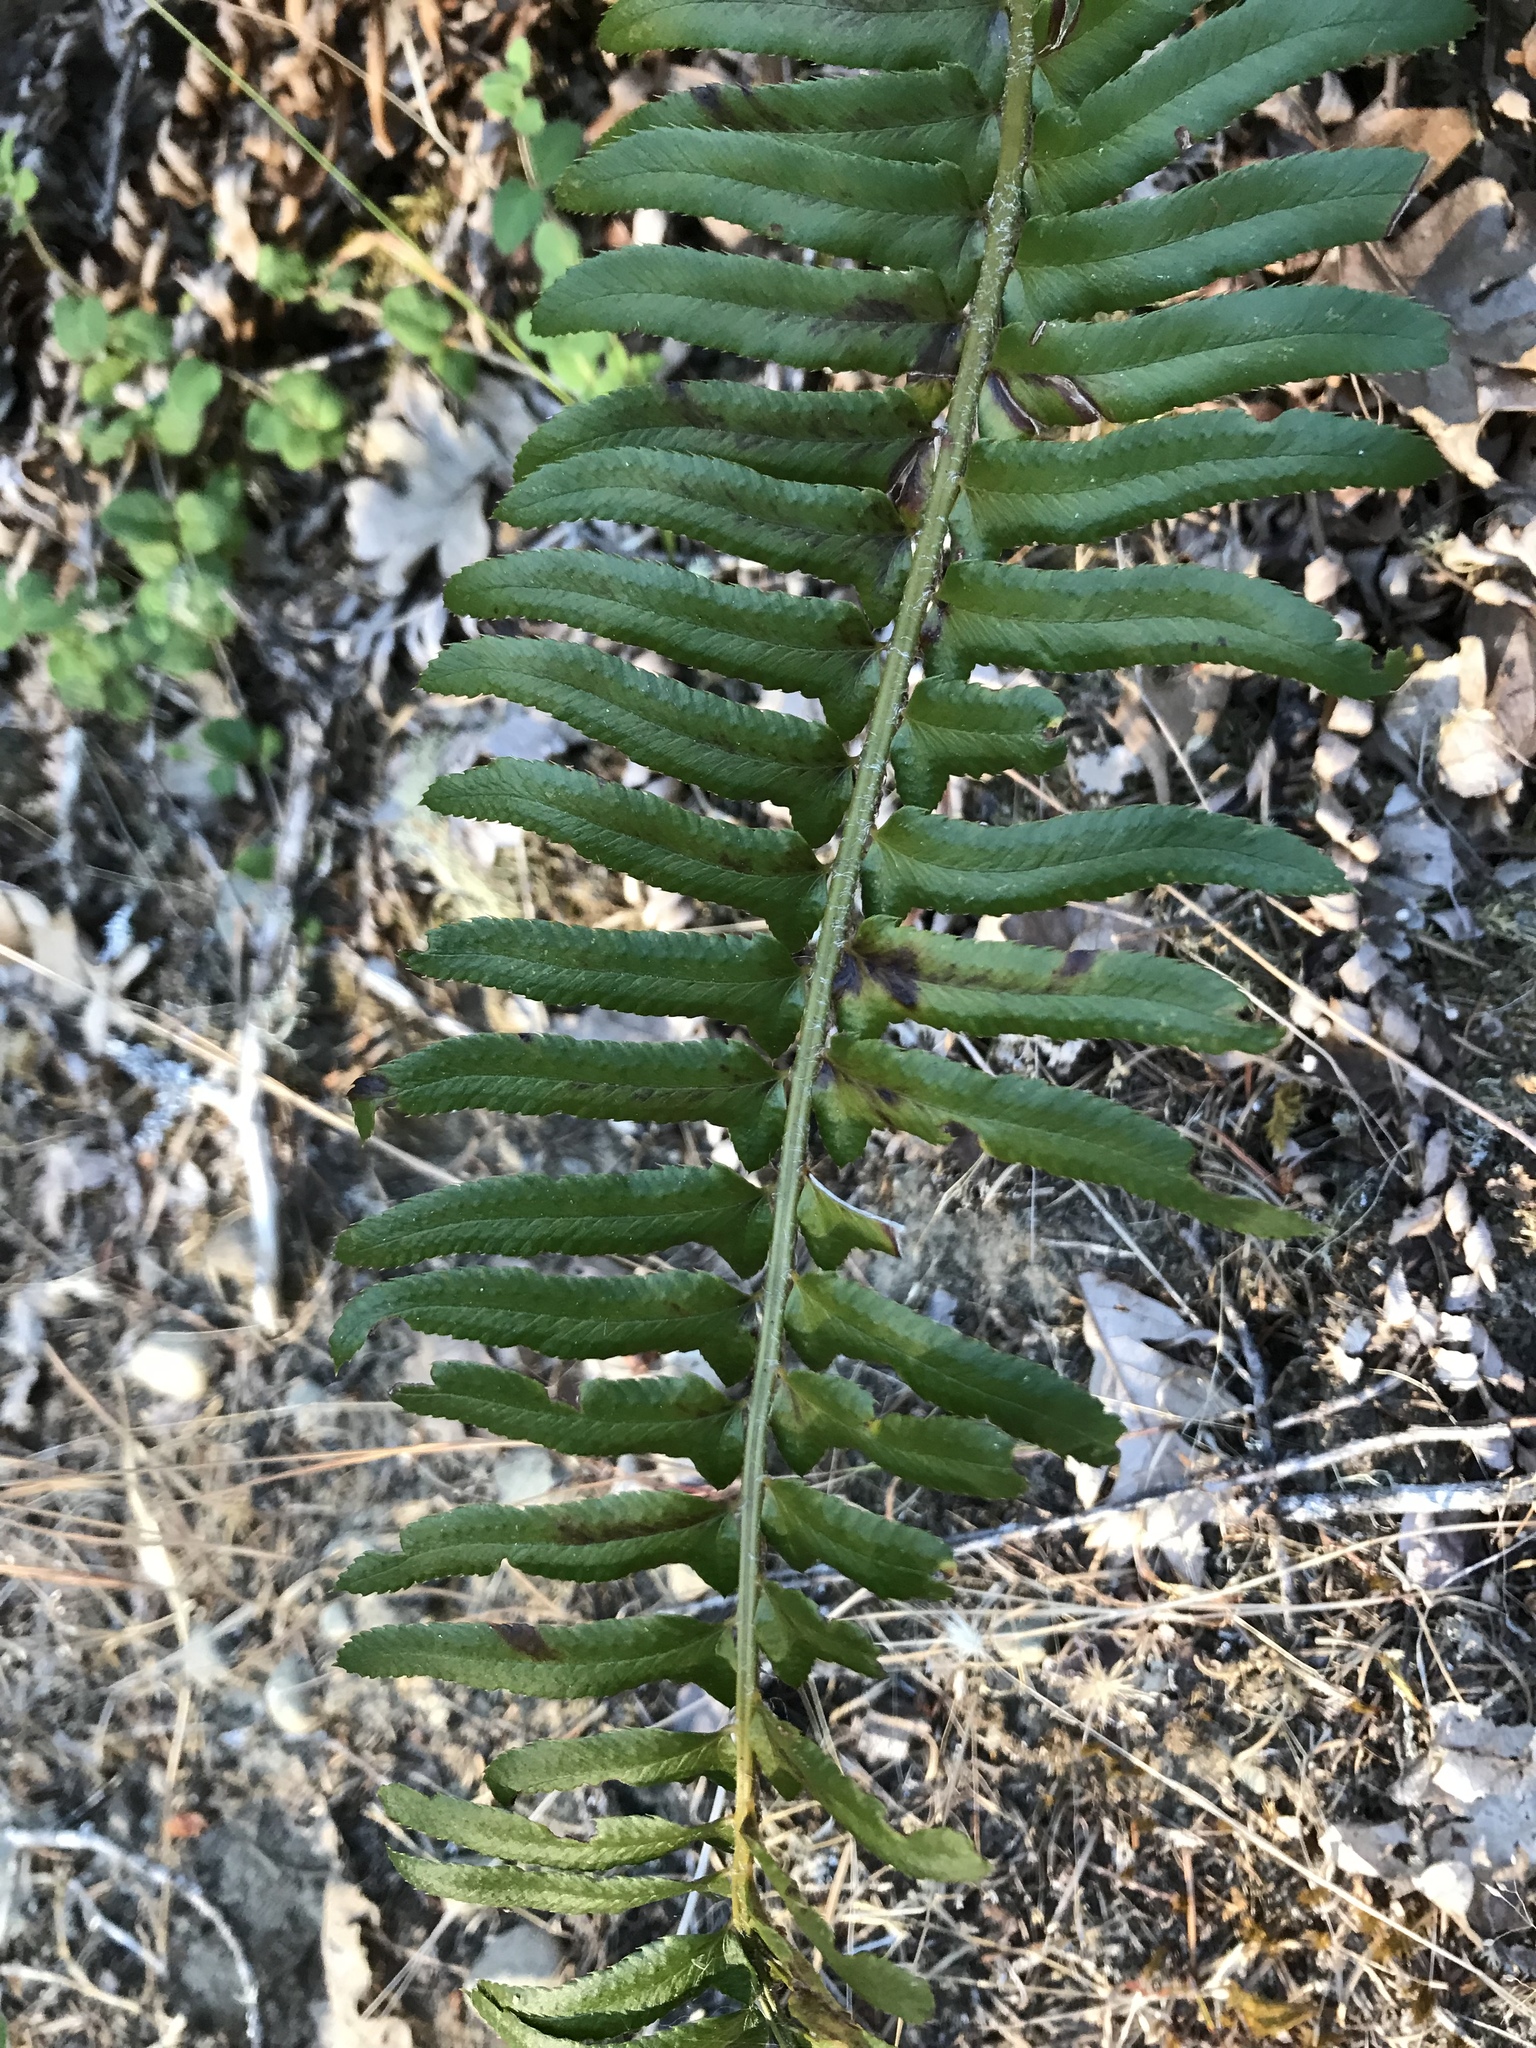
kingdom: Plantae
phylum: Tracheophyta
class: Polypodiopsida
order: Polypodiales
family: Dryopteridaceae
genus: Polystichum
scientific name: Polystichum munitum
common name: Western sword-fern
